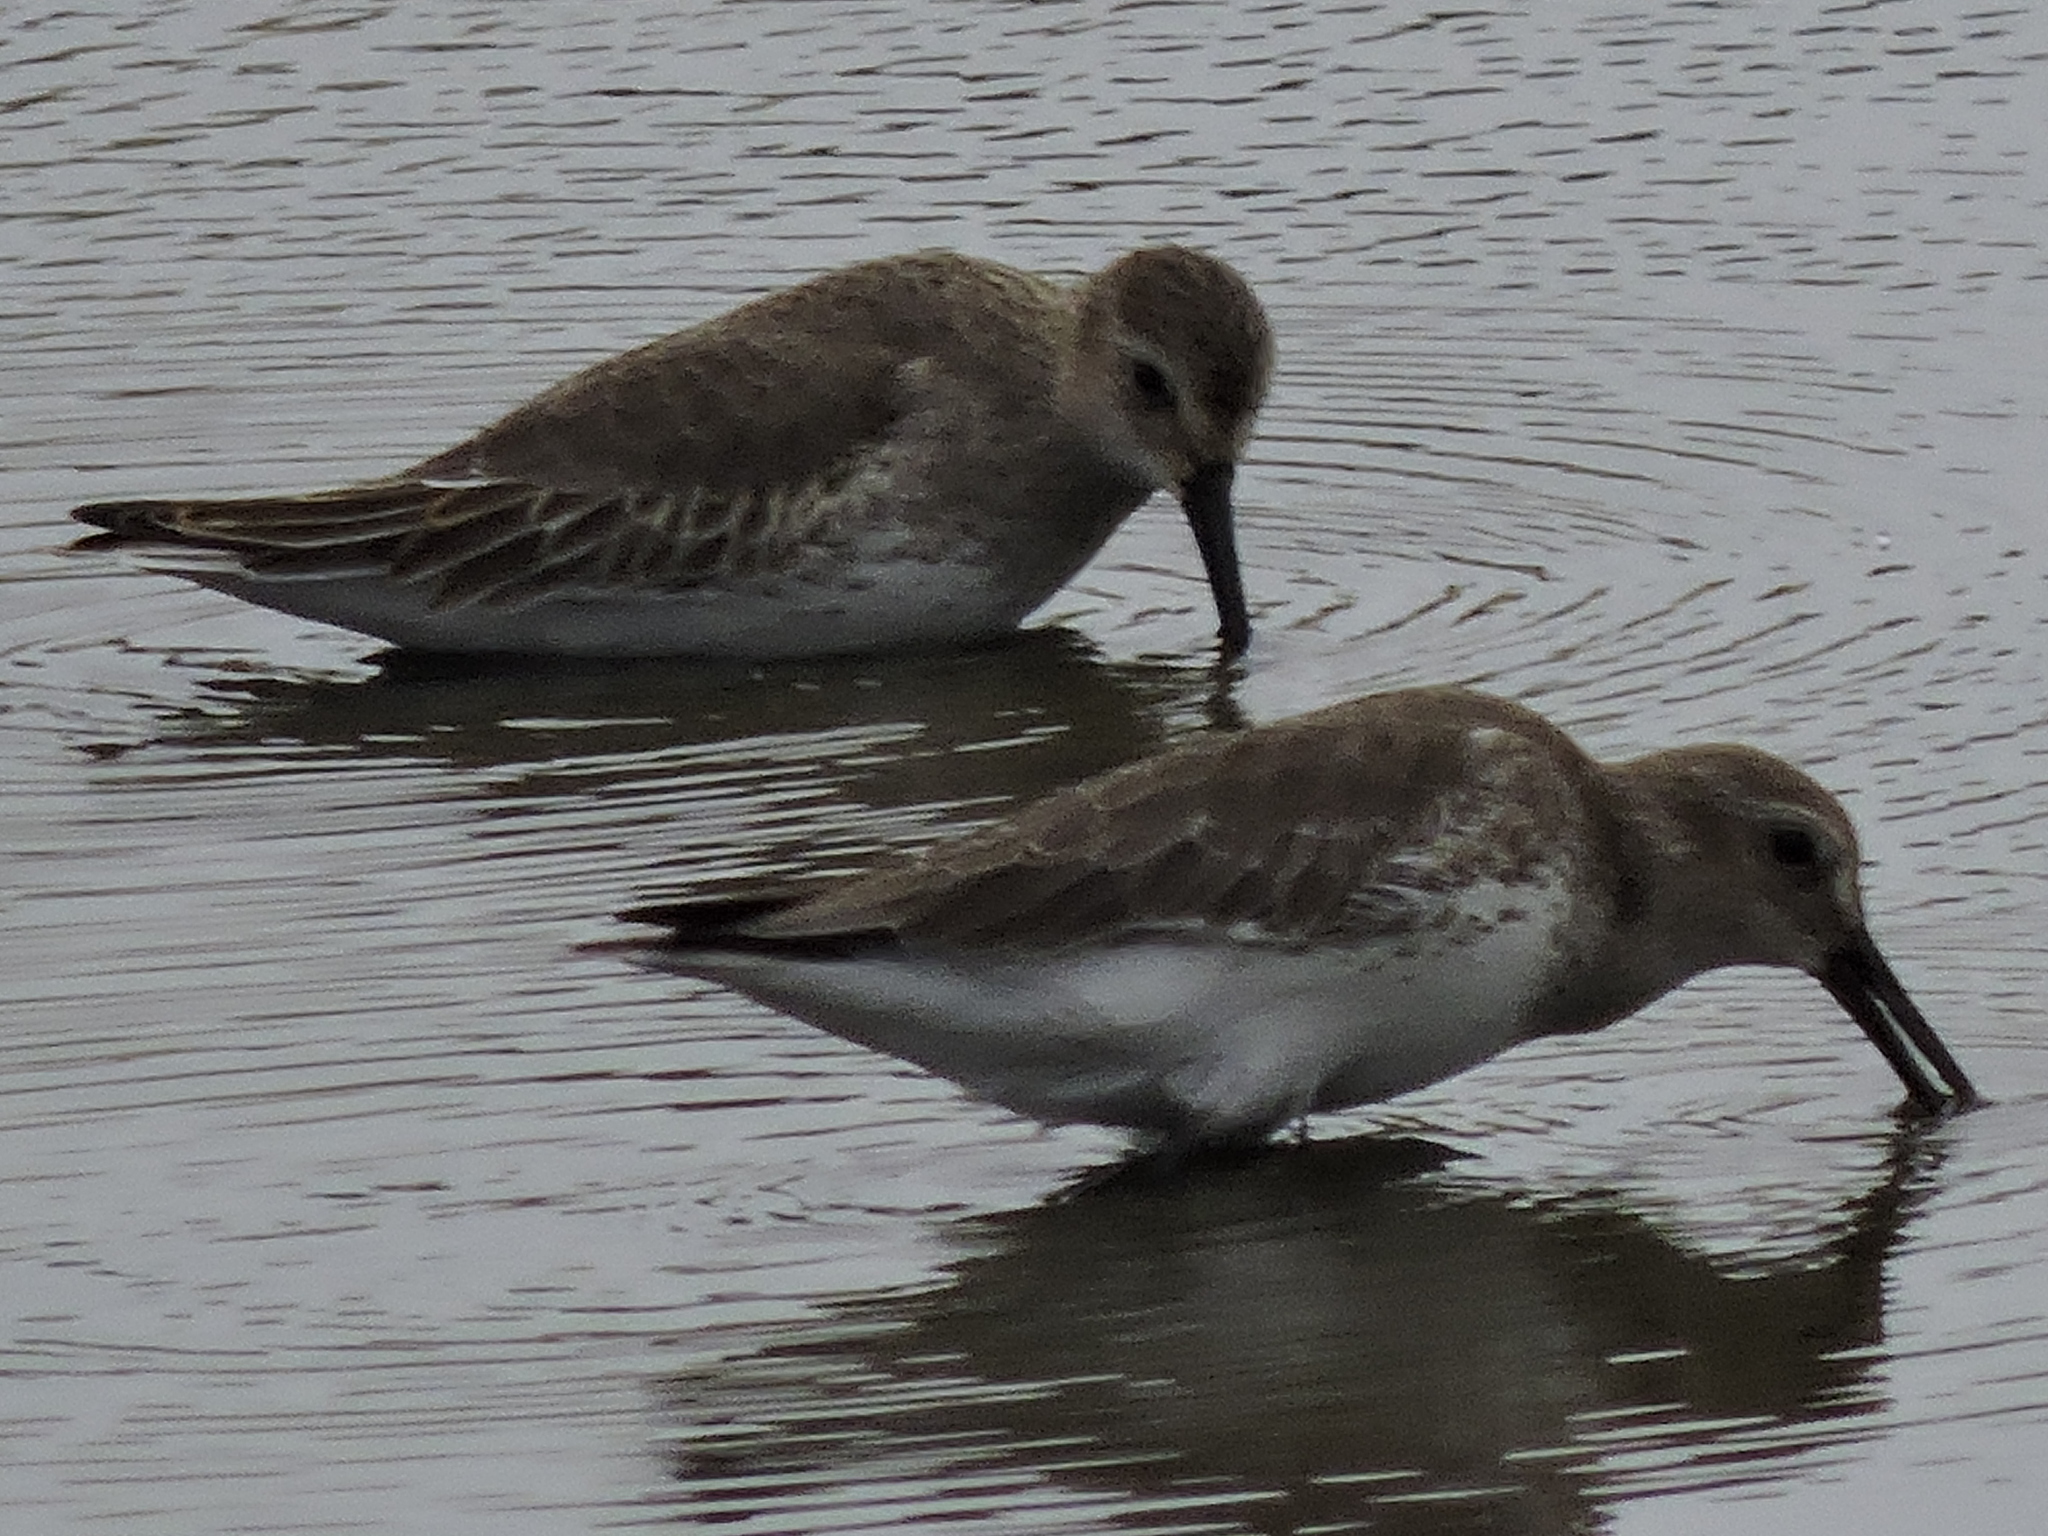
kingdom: Animalia
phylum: Chordata
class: Aves
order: Charadriiformes
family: Scolopacidae
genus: Calidris
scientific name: Calidris alpina
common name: Dunlin
